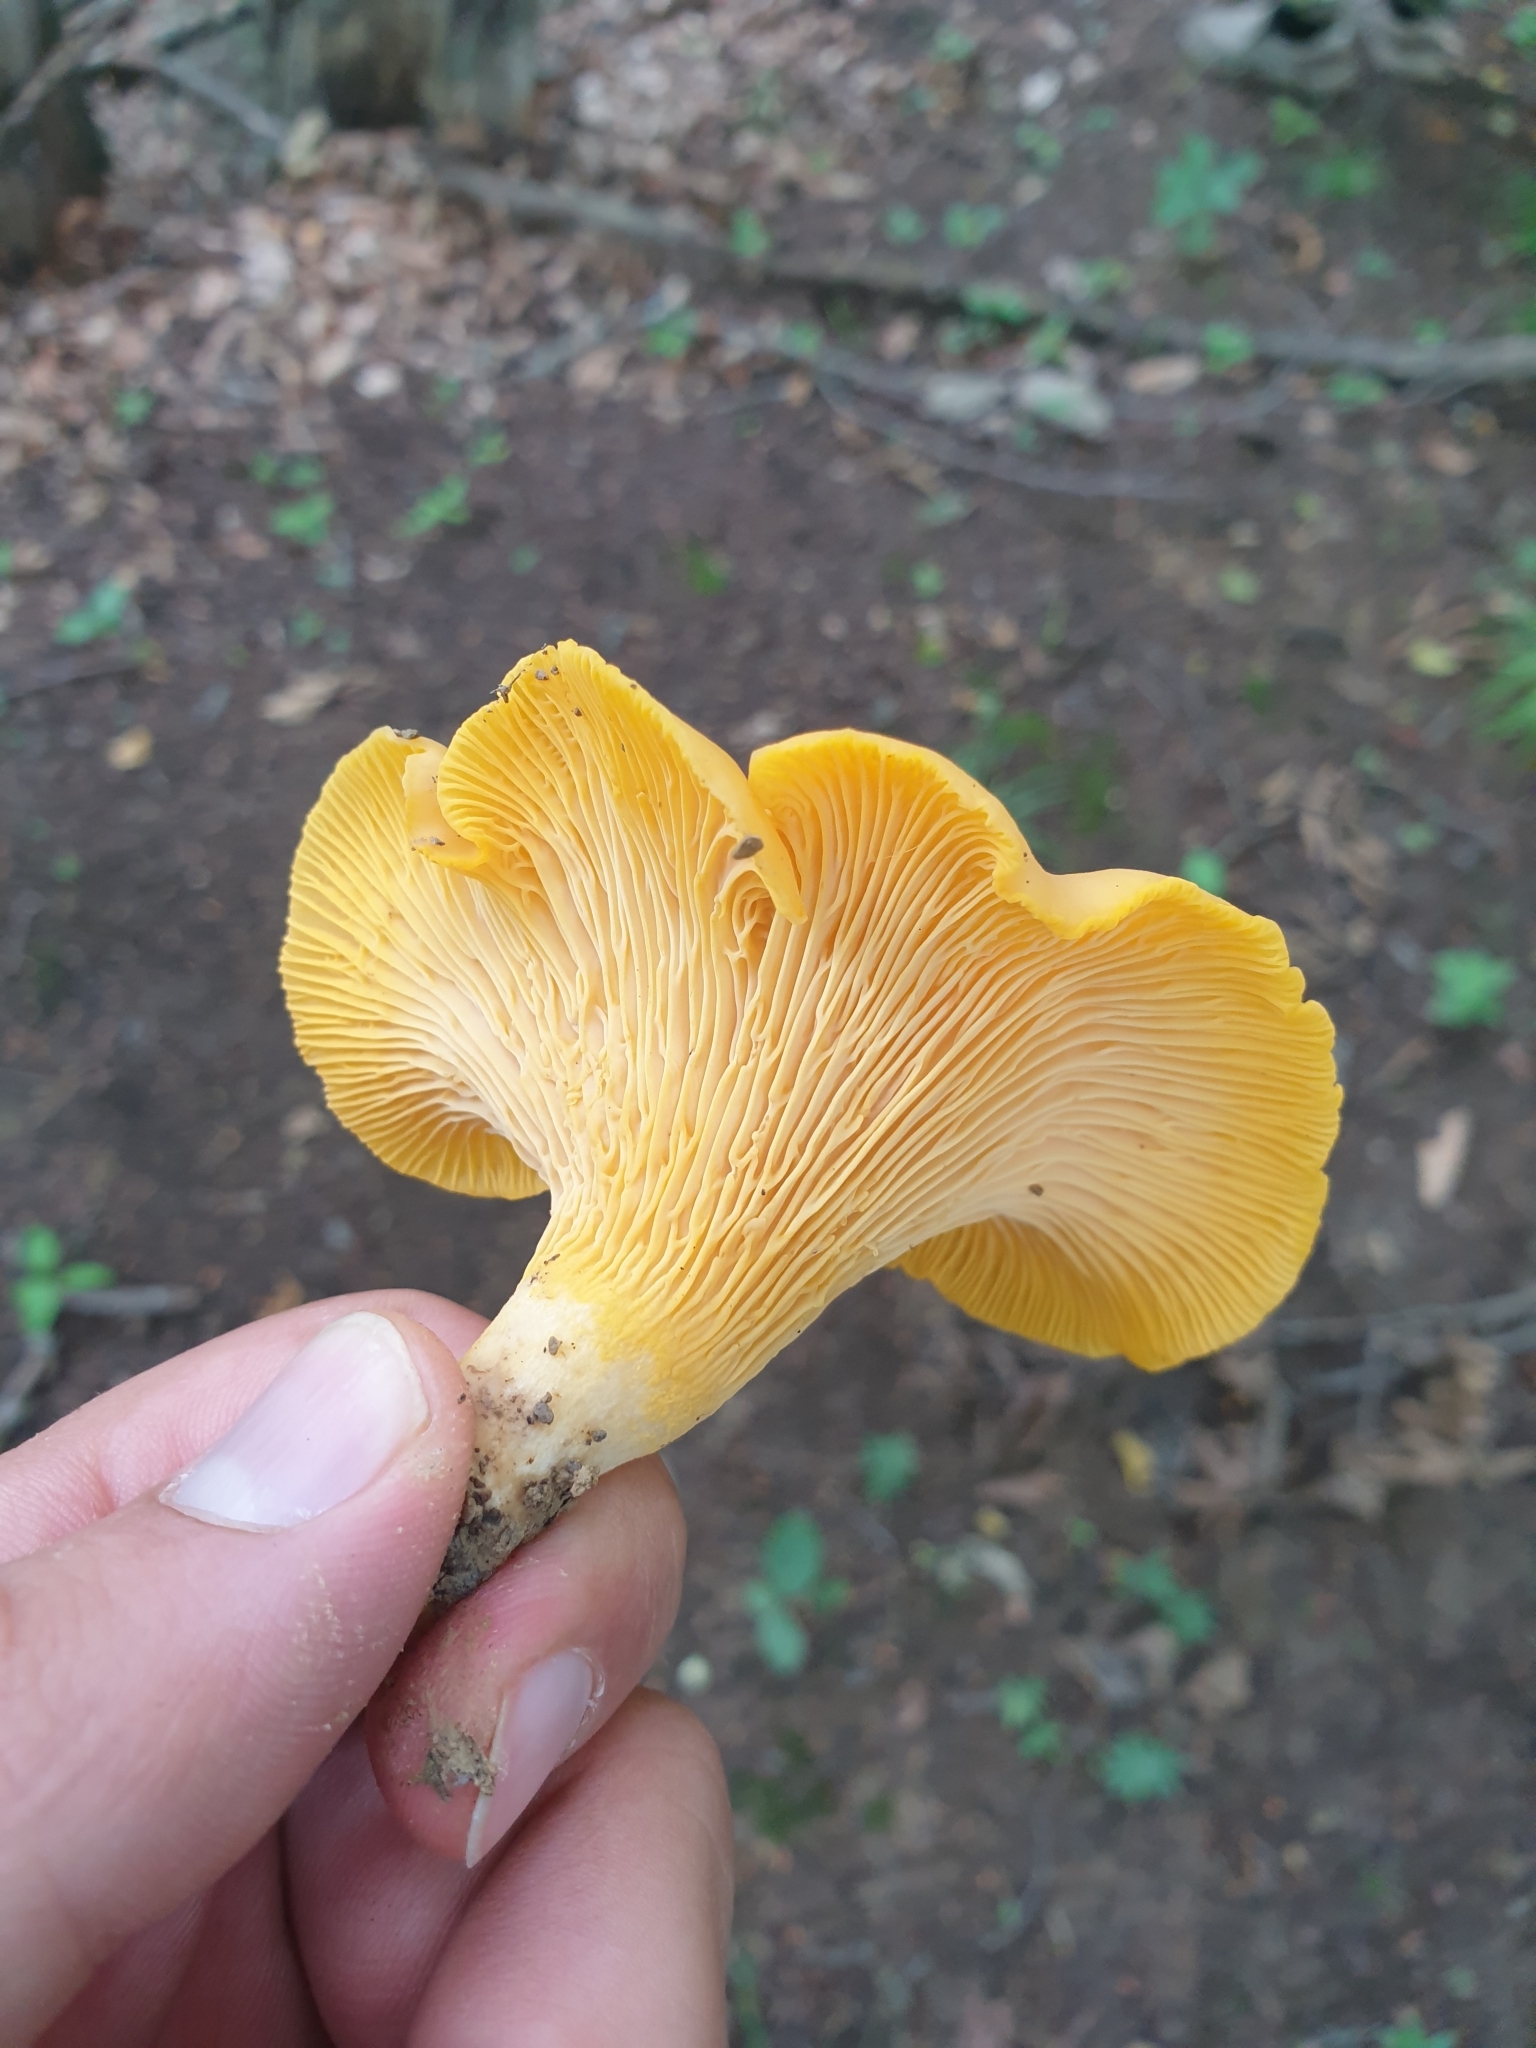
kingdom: Fungi
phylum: Basidiomycota
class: Agaricomycetes
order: Cantharellales
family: Hydnaceae
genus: Cantharellus
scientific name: Cantharellus cibarius
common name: Chanterelle
